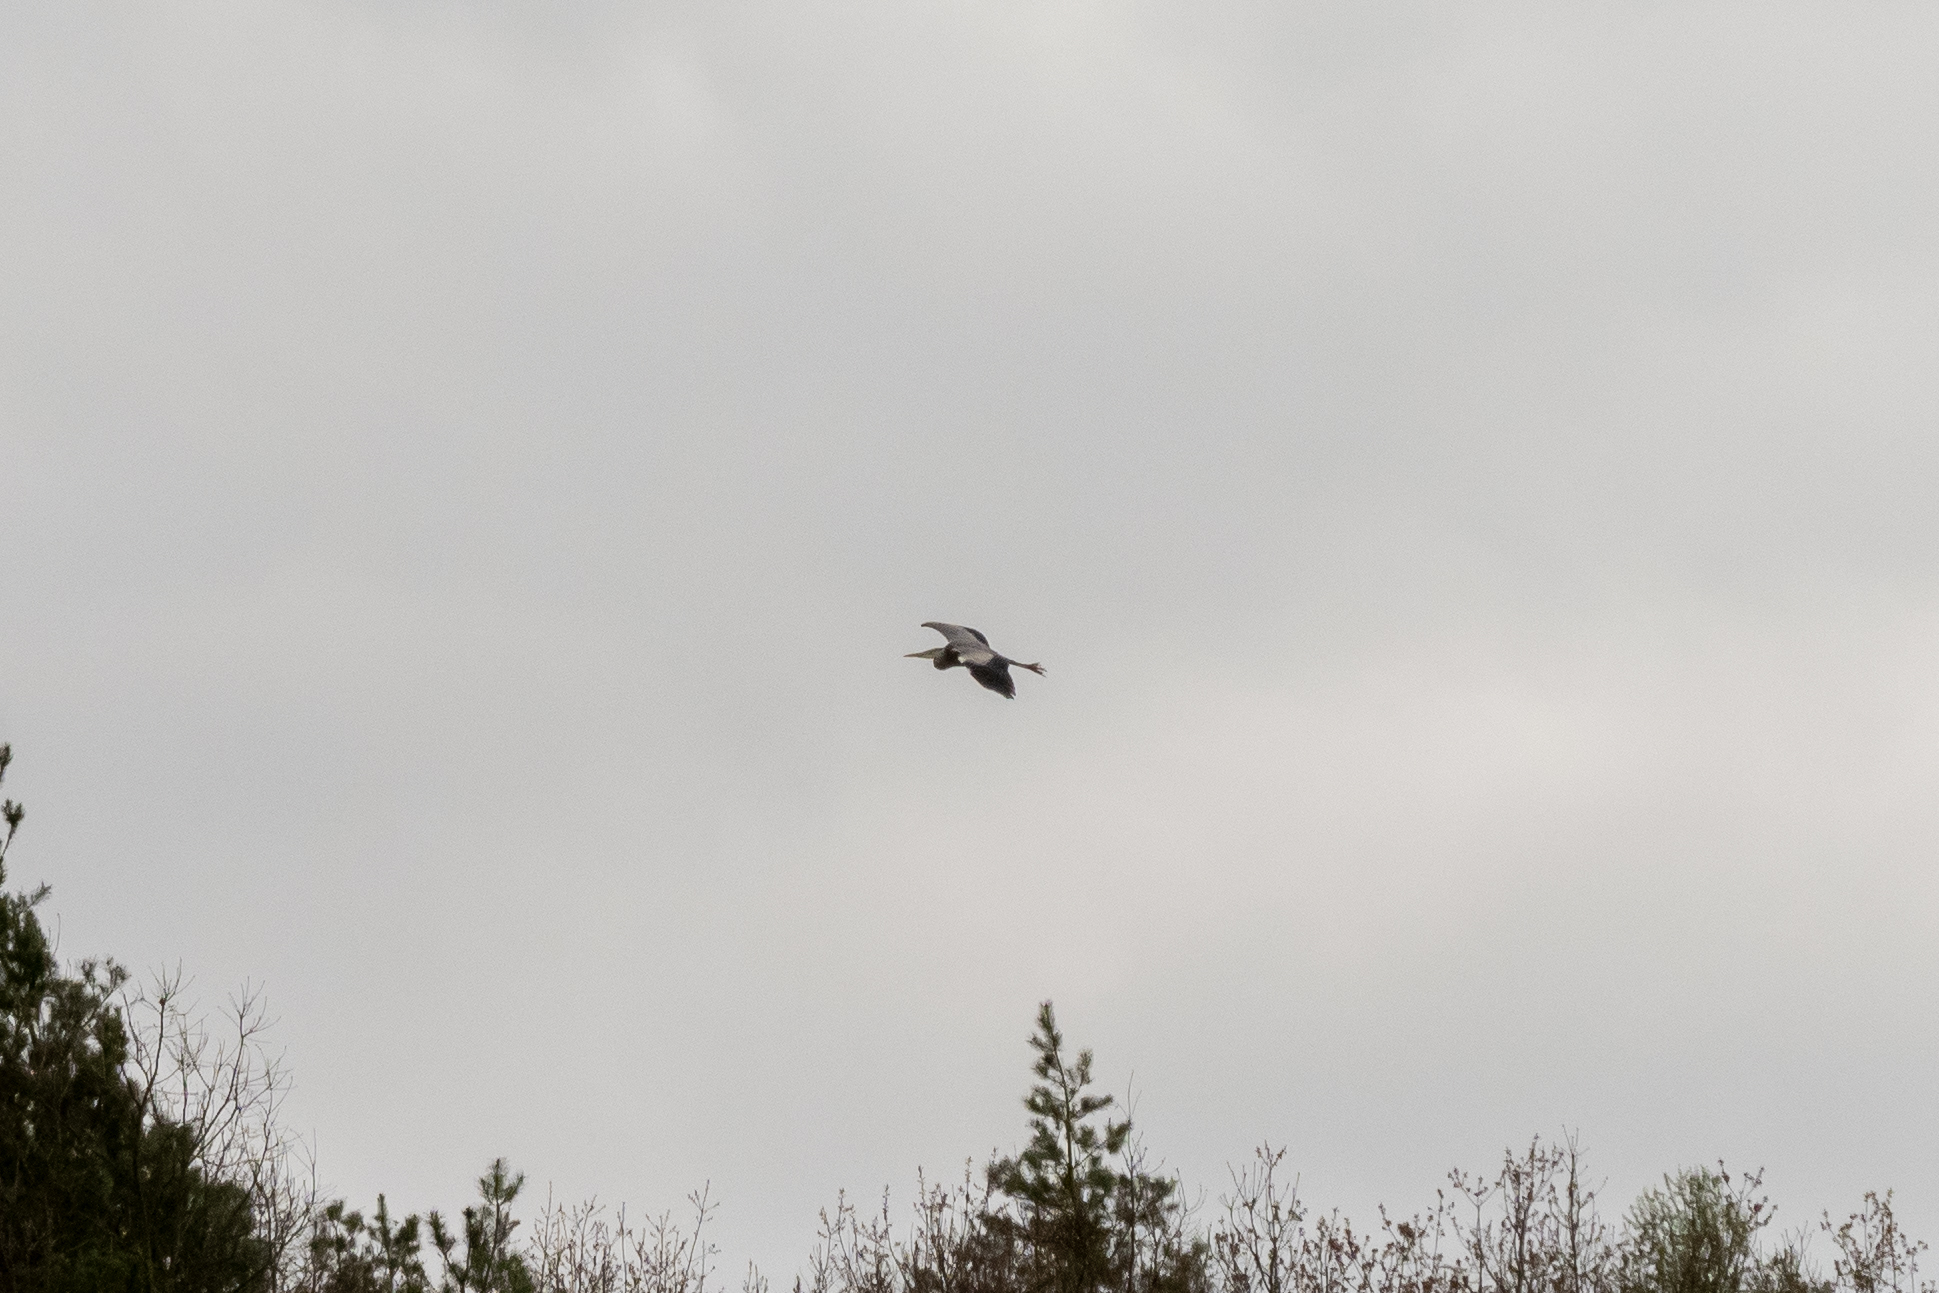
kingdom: Animalia
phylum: Chordata
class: Aves
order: Pelecaniformes
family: Ardeidae
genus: Ardea
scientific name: Ardea cinerea
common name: Grey heron
